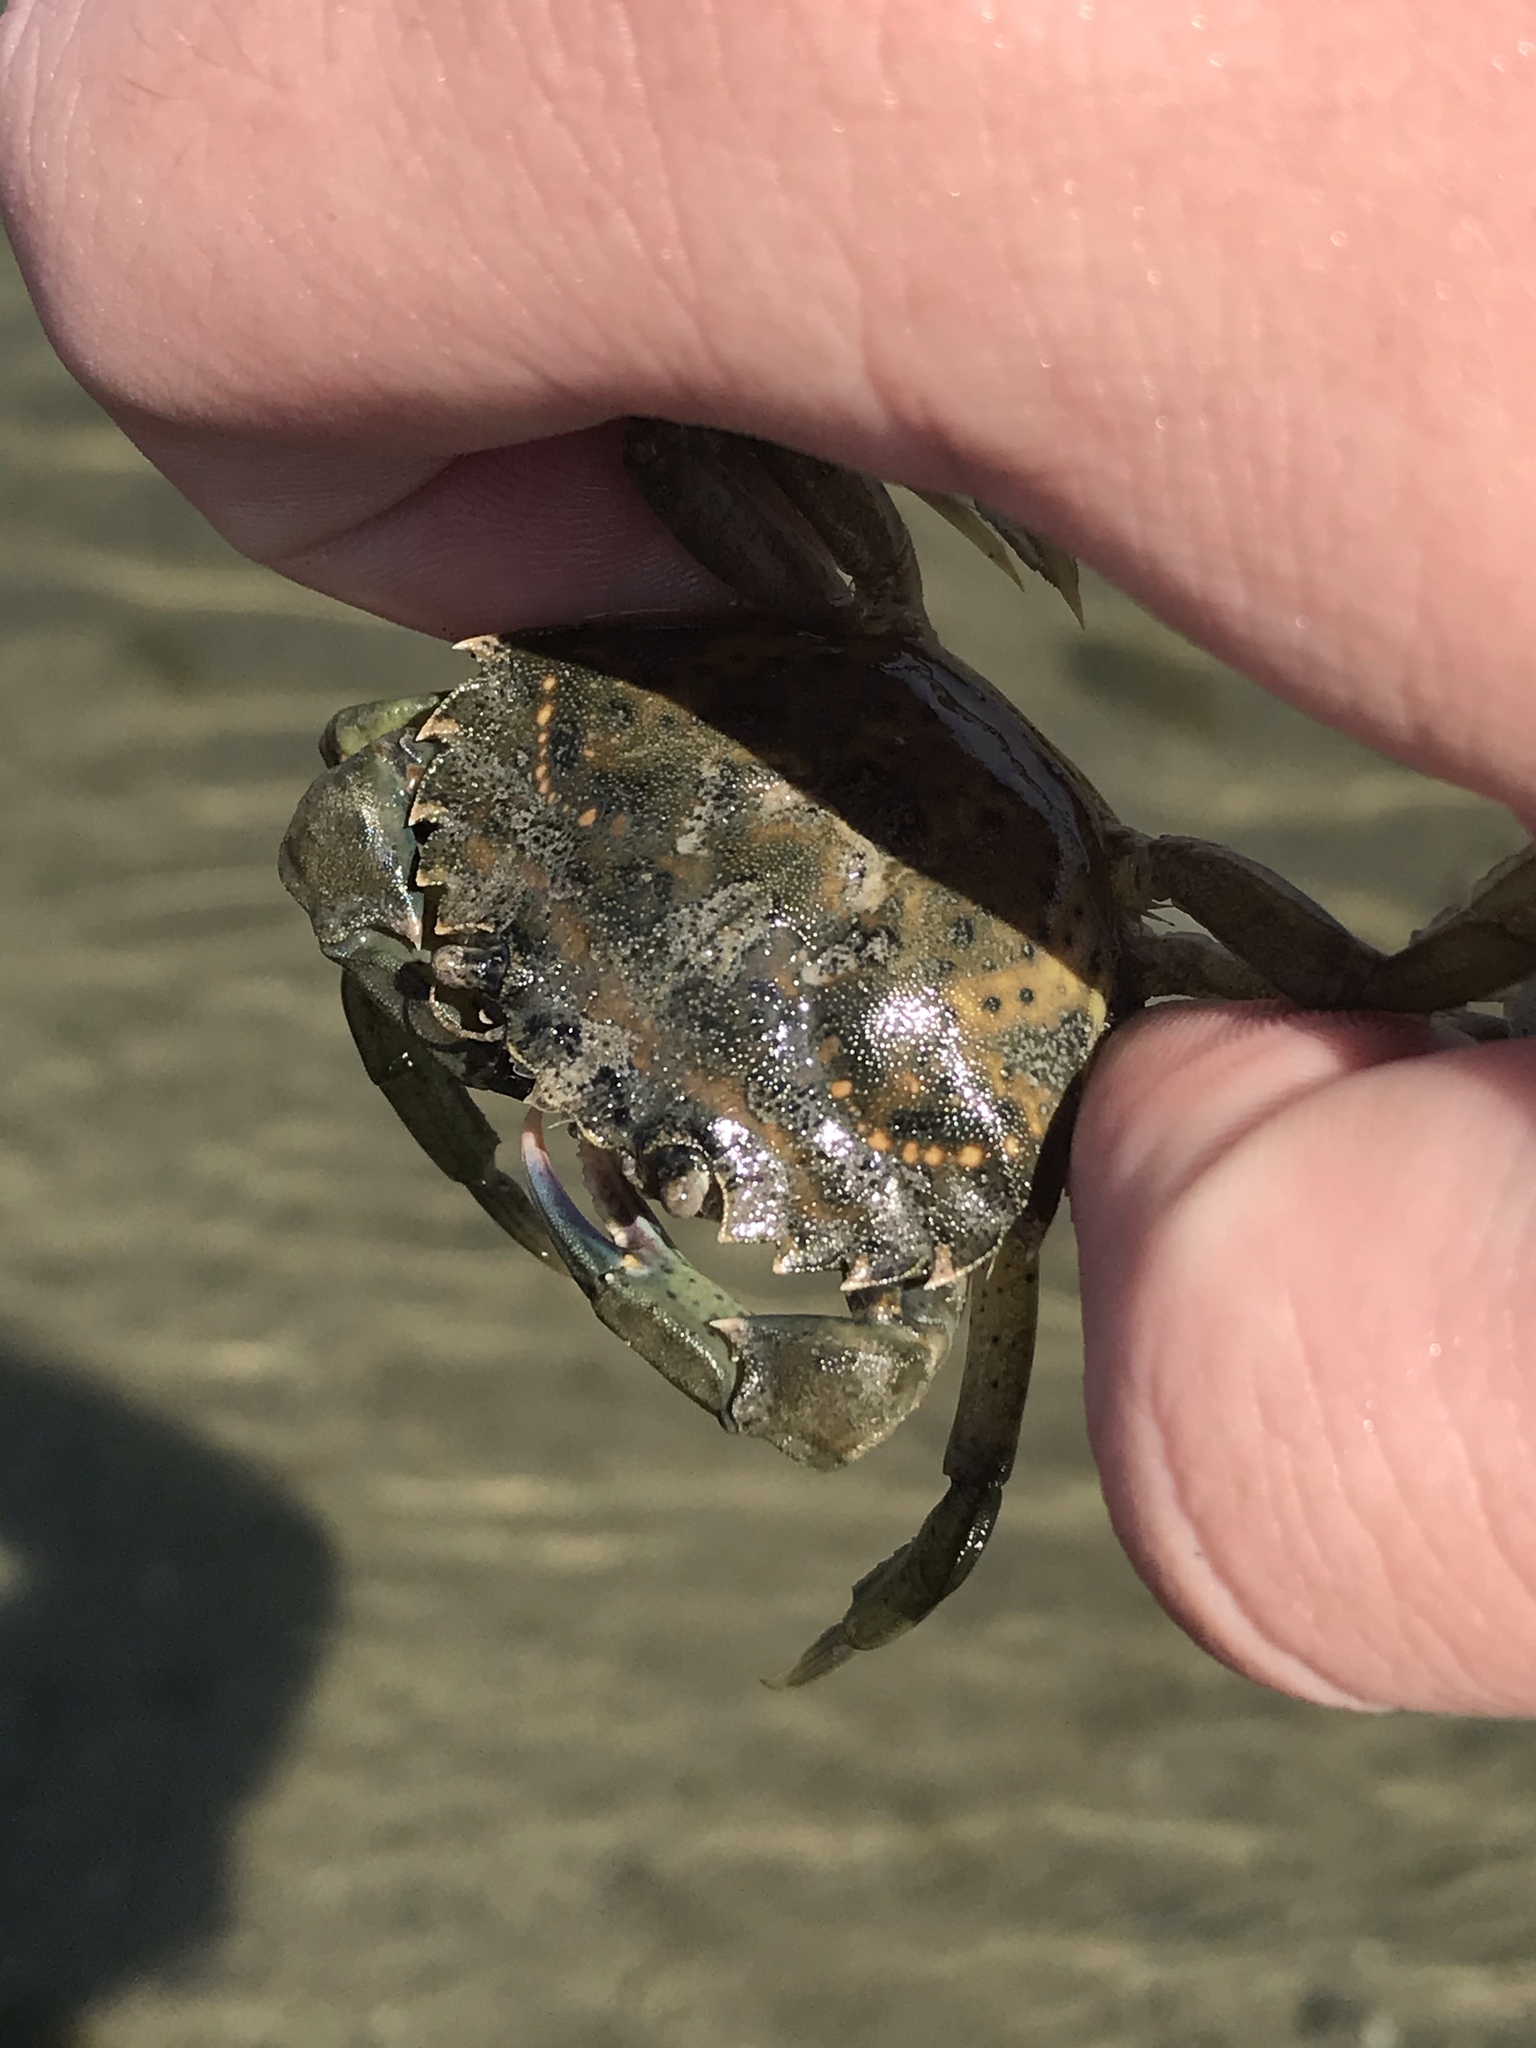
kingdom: Animalia
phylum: Arthropoda
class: Malacostraca
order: Decapoda
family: Carcinidae
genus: Carcinus
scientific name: Carcinus maenas
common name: European green crab
